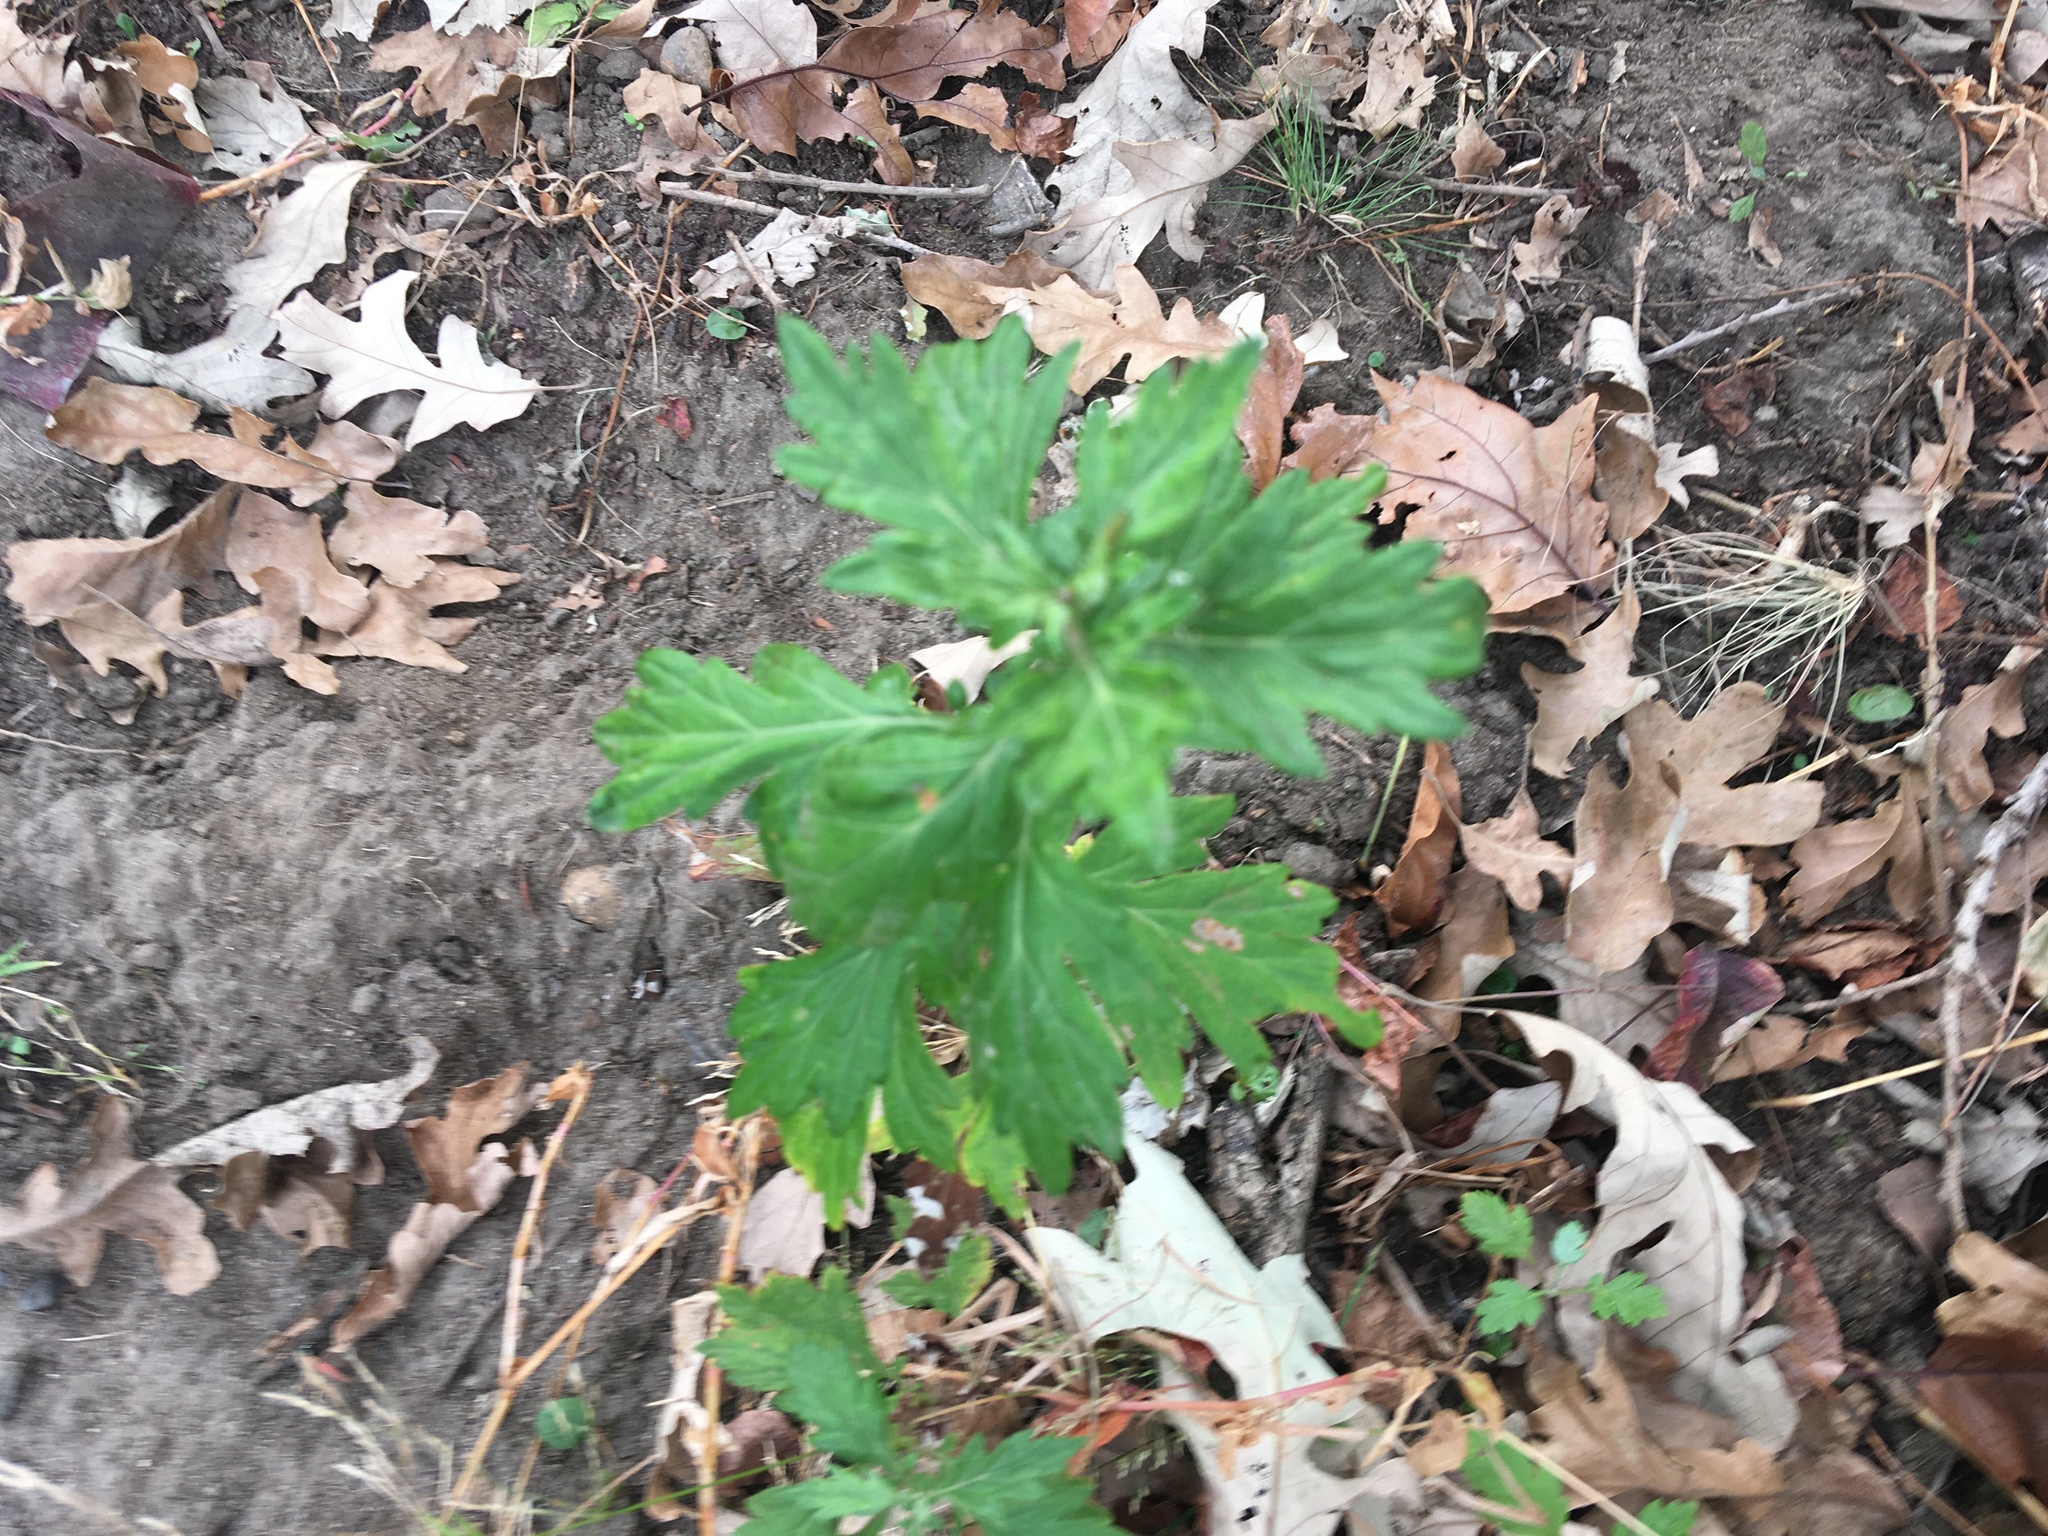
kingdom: Plantae
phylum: Tracheophyta
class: Magnoliopsida
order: Asterales
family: Asteraceae
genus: Artemisia
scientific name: Artemisia vulgaris
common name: Mugwort
